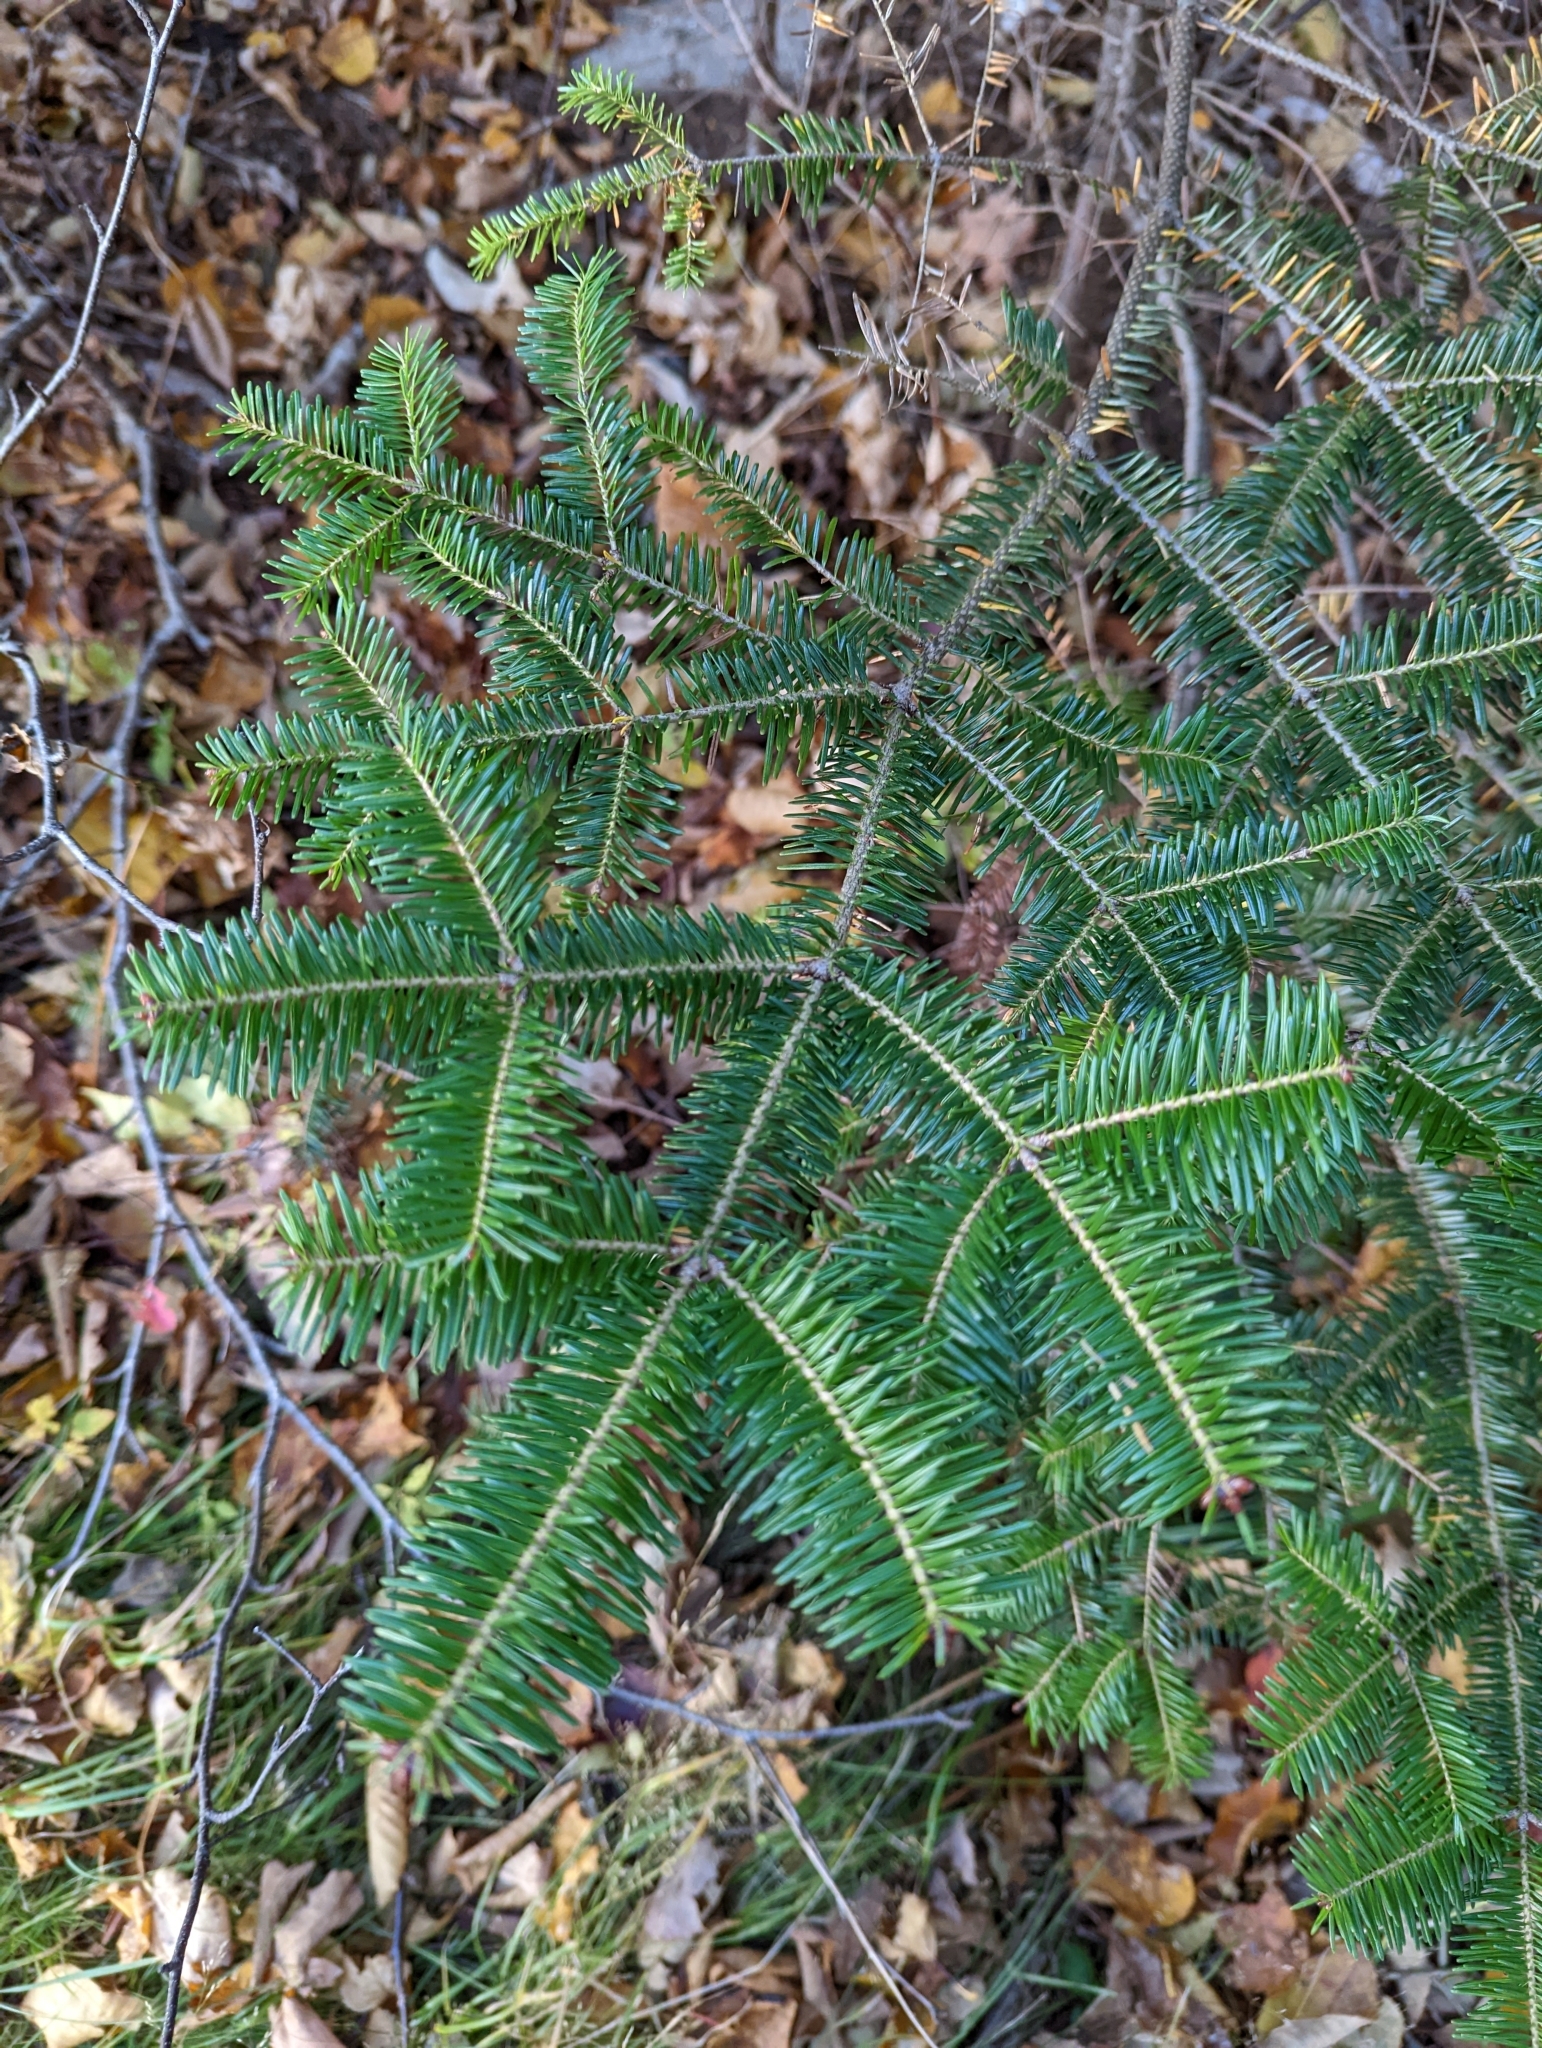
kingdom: Plantae
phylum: Tracheophyta
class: Pinopsida
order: Pinales
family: Pinaceae
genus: Abies
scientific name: Abies balsamea
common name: Balsam fir
